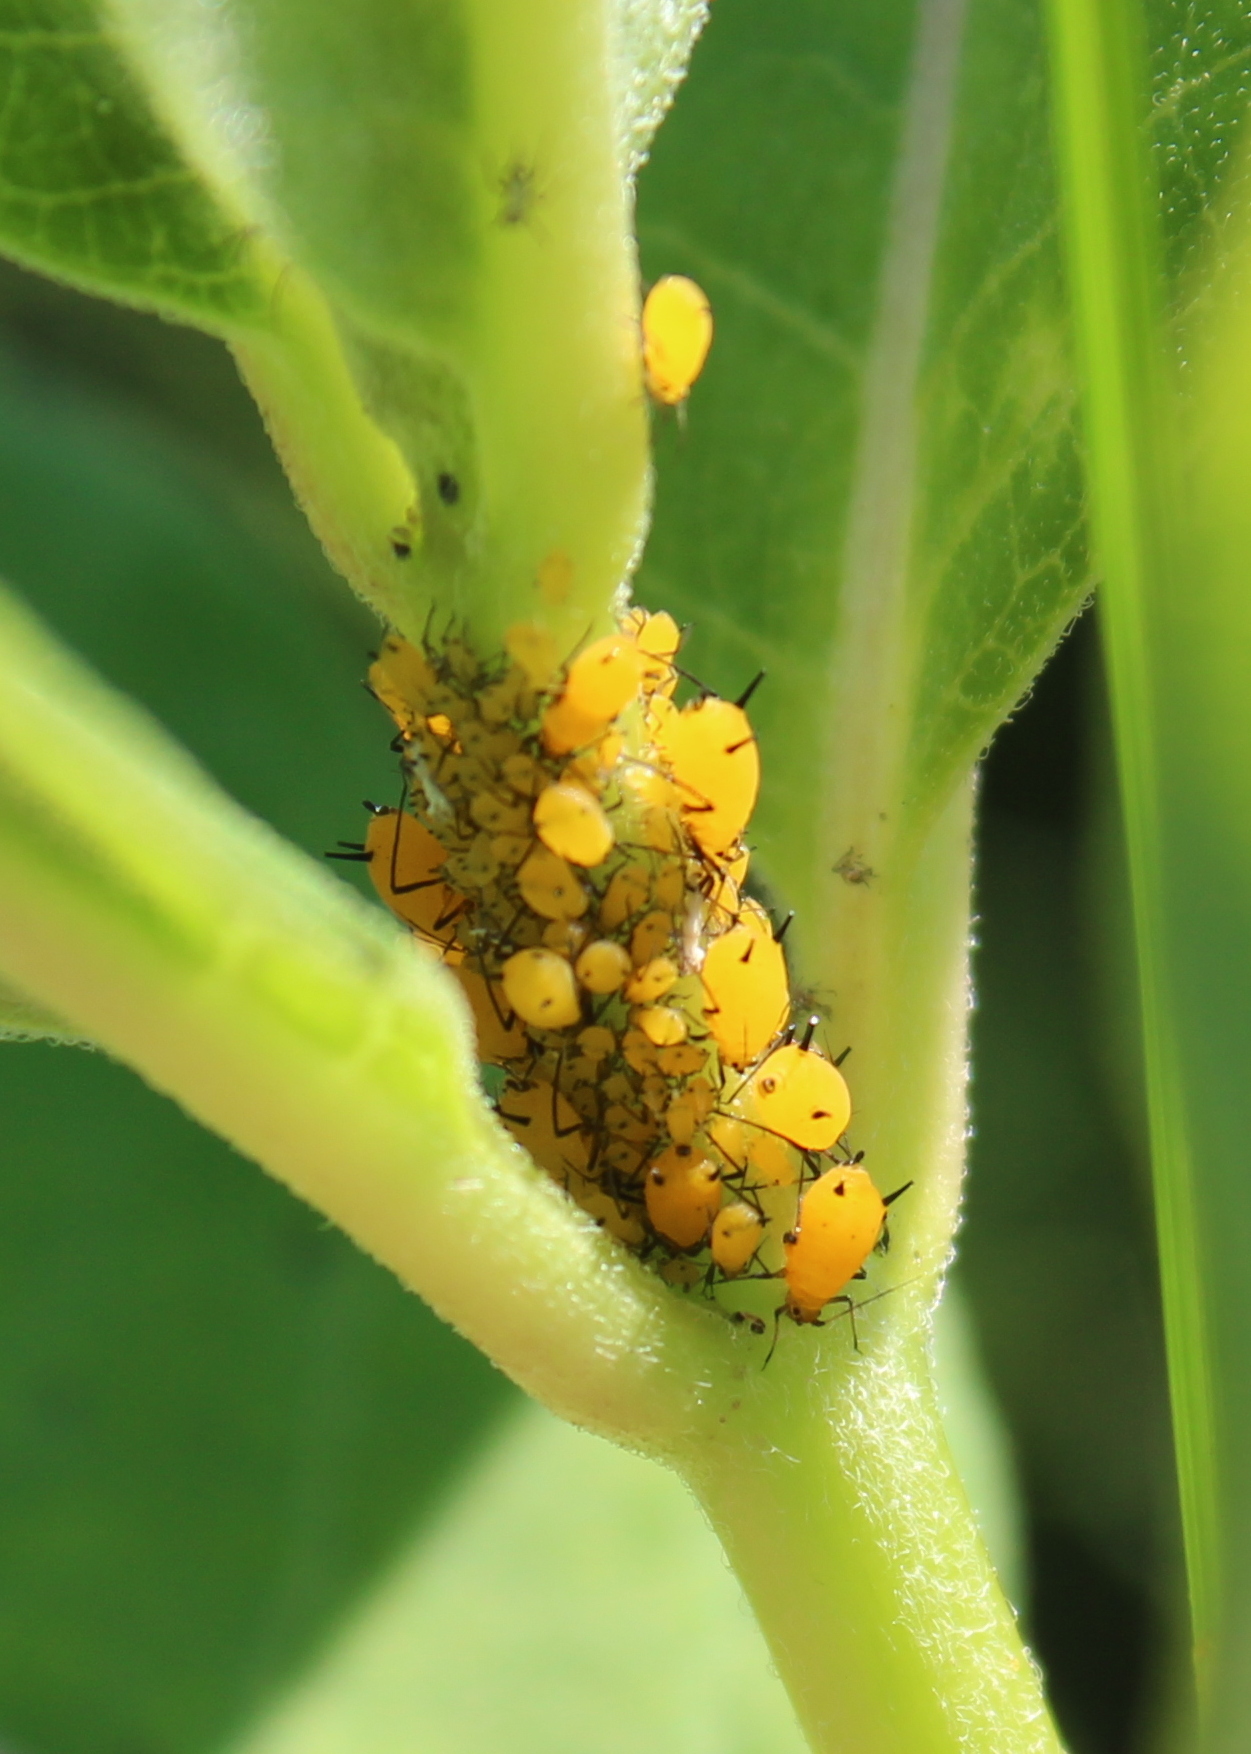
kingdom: Animalia
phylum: Arthropoda
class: Insecta
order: Hemiptera
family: Aphididae
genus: Aphis
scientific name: Aphis nerii
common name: Oleander aphid
